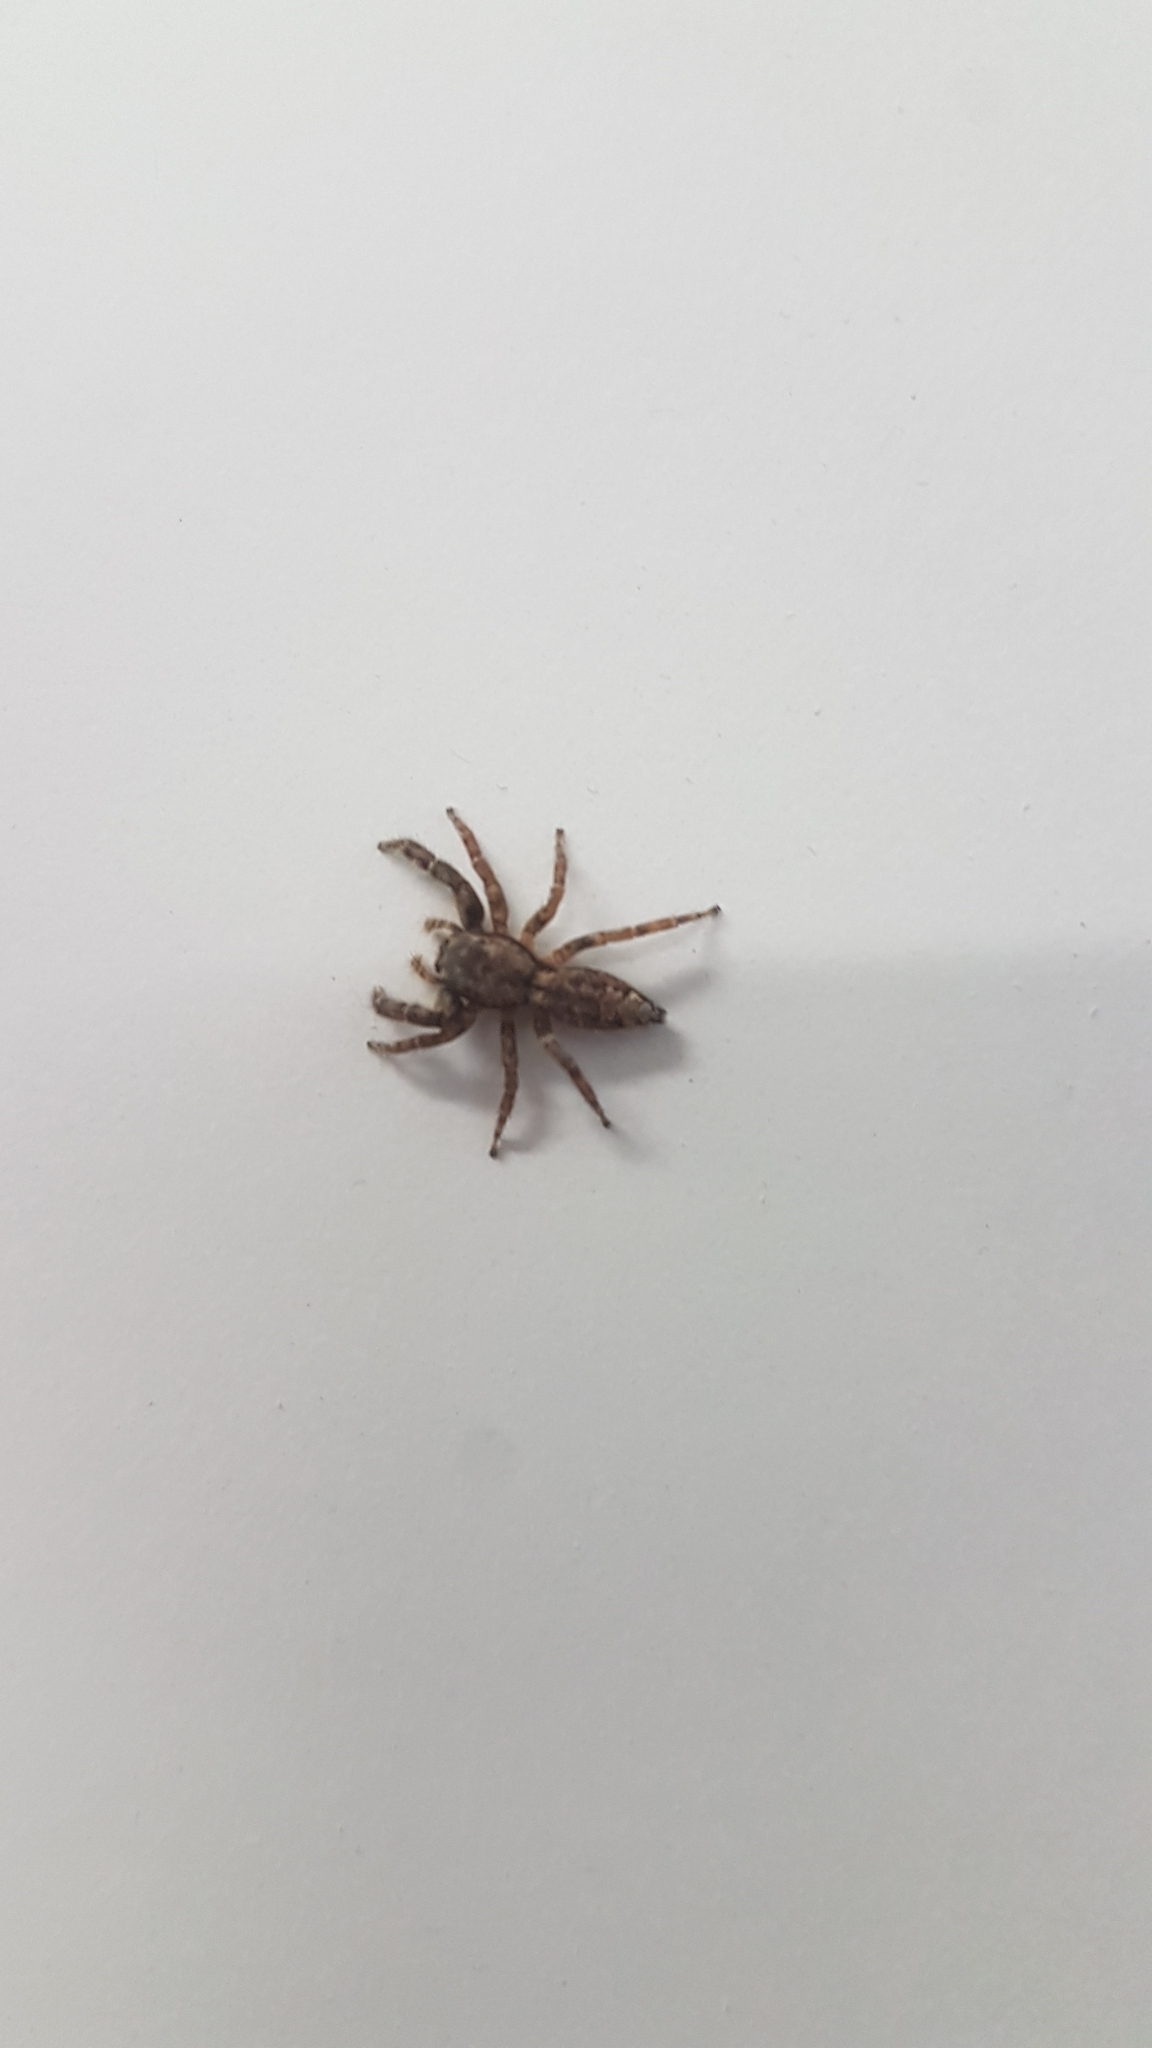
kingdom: Animalia
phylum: Arthropoda
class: Arachnida
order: Araneae
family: Salticidae
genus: Marpissa
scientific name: Marpissa muscosa
